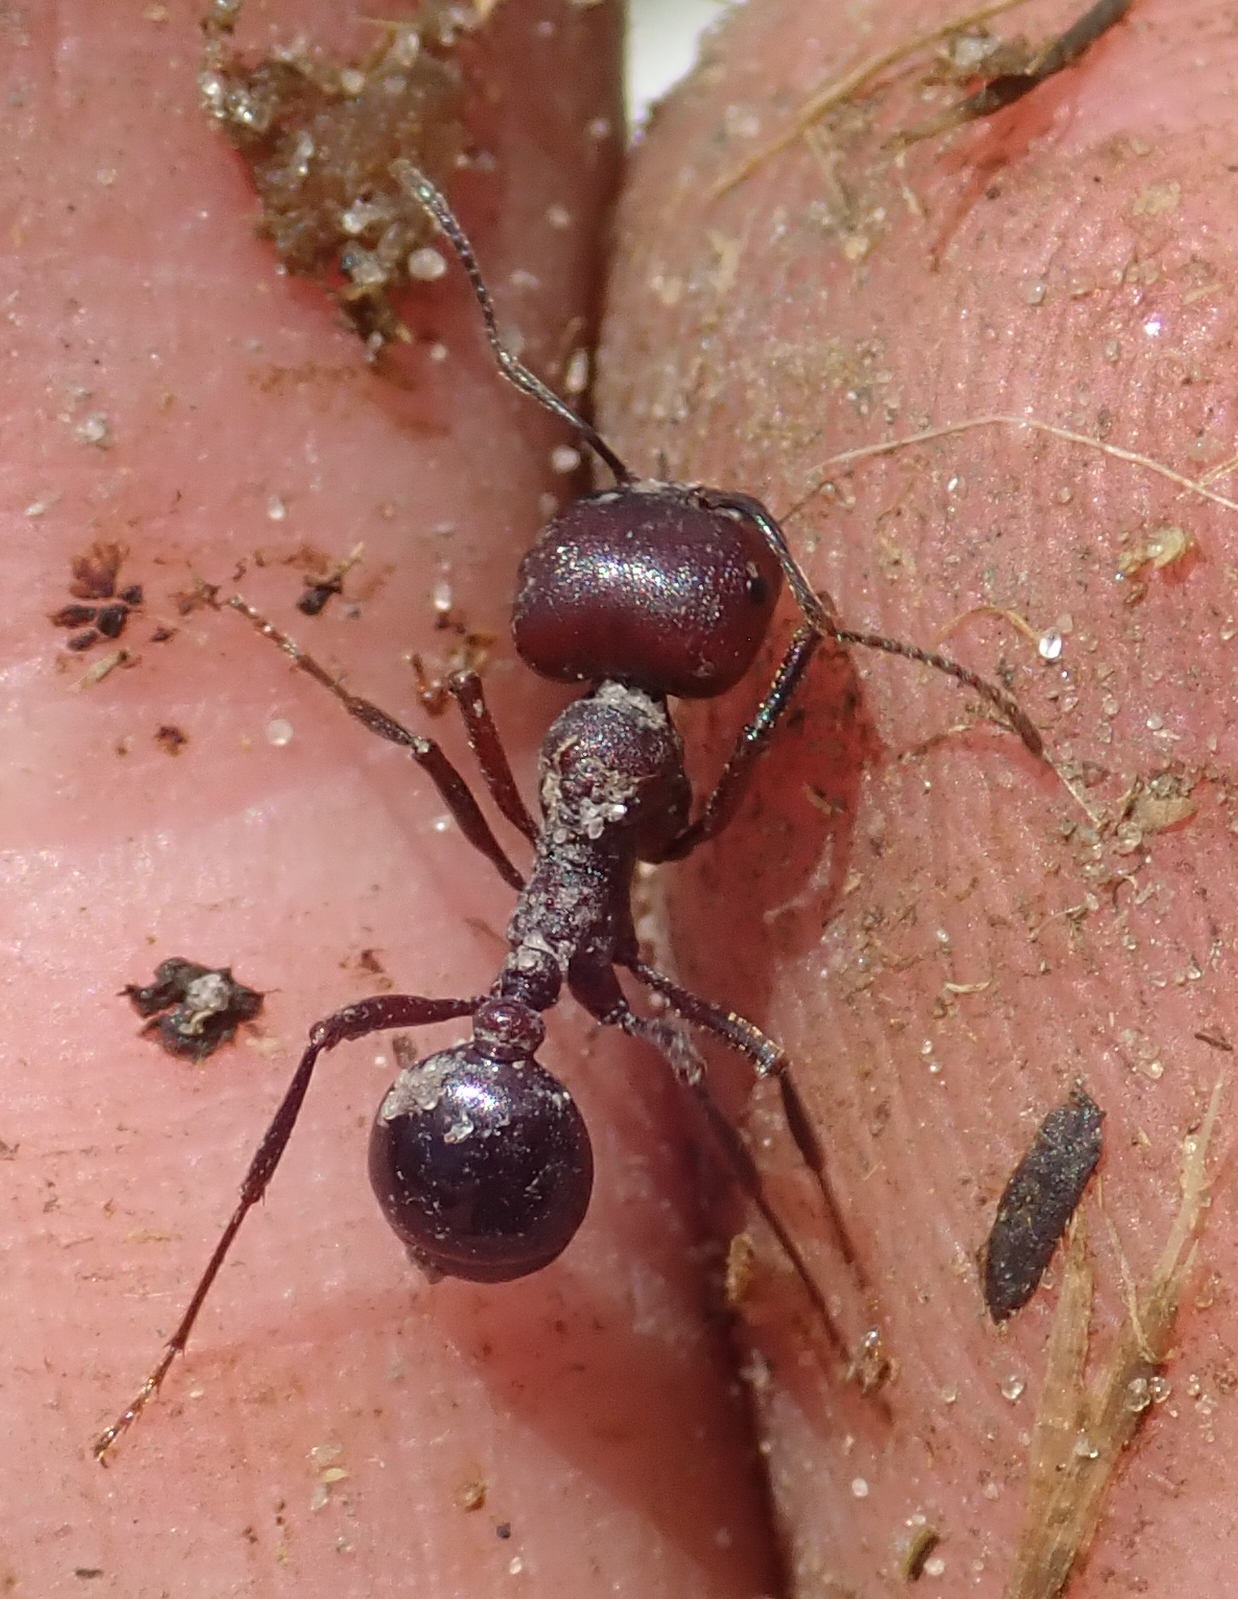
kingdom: Animalia
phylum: Arthropoda
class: Insecta
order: Hymenoptera
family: Formicidae
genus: Messor
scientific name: Messor luebberti
